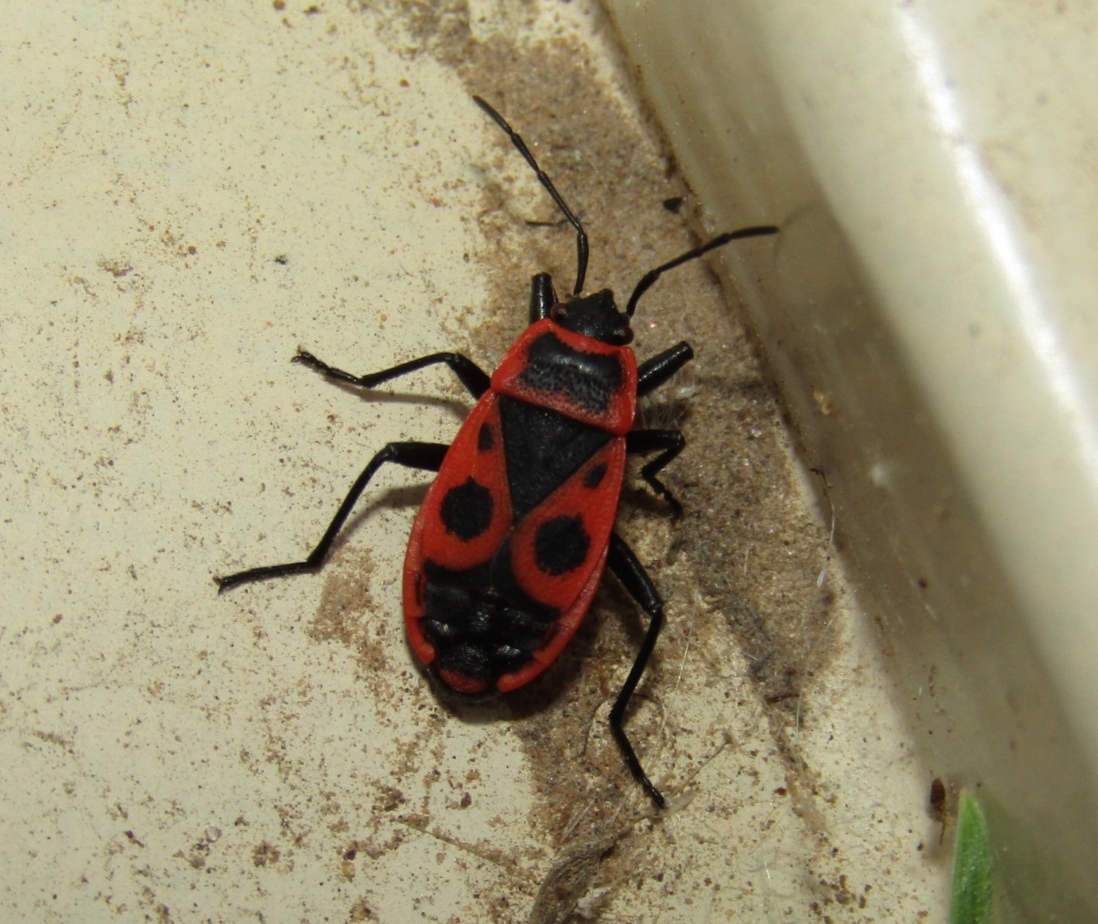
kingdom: Animalia
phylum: Arthropoda
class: Insecta
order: Hemiptera
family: Pyrrhocoridae
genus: Pyrrhocoris
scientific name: Pyrrhocoris apterus
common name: Firebug
